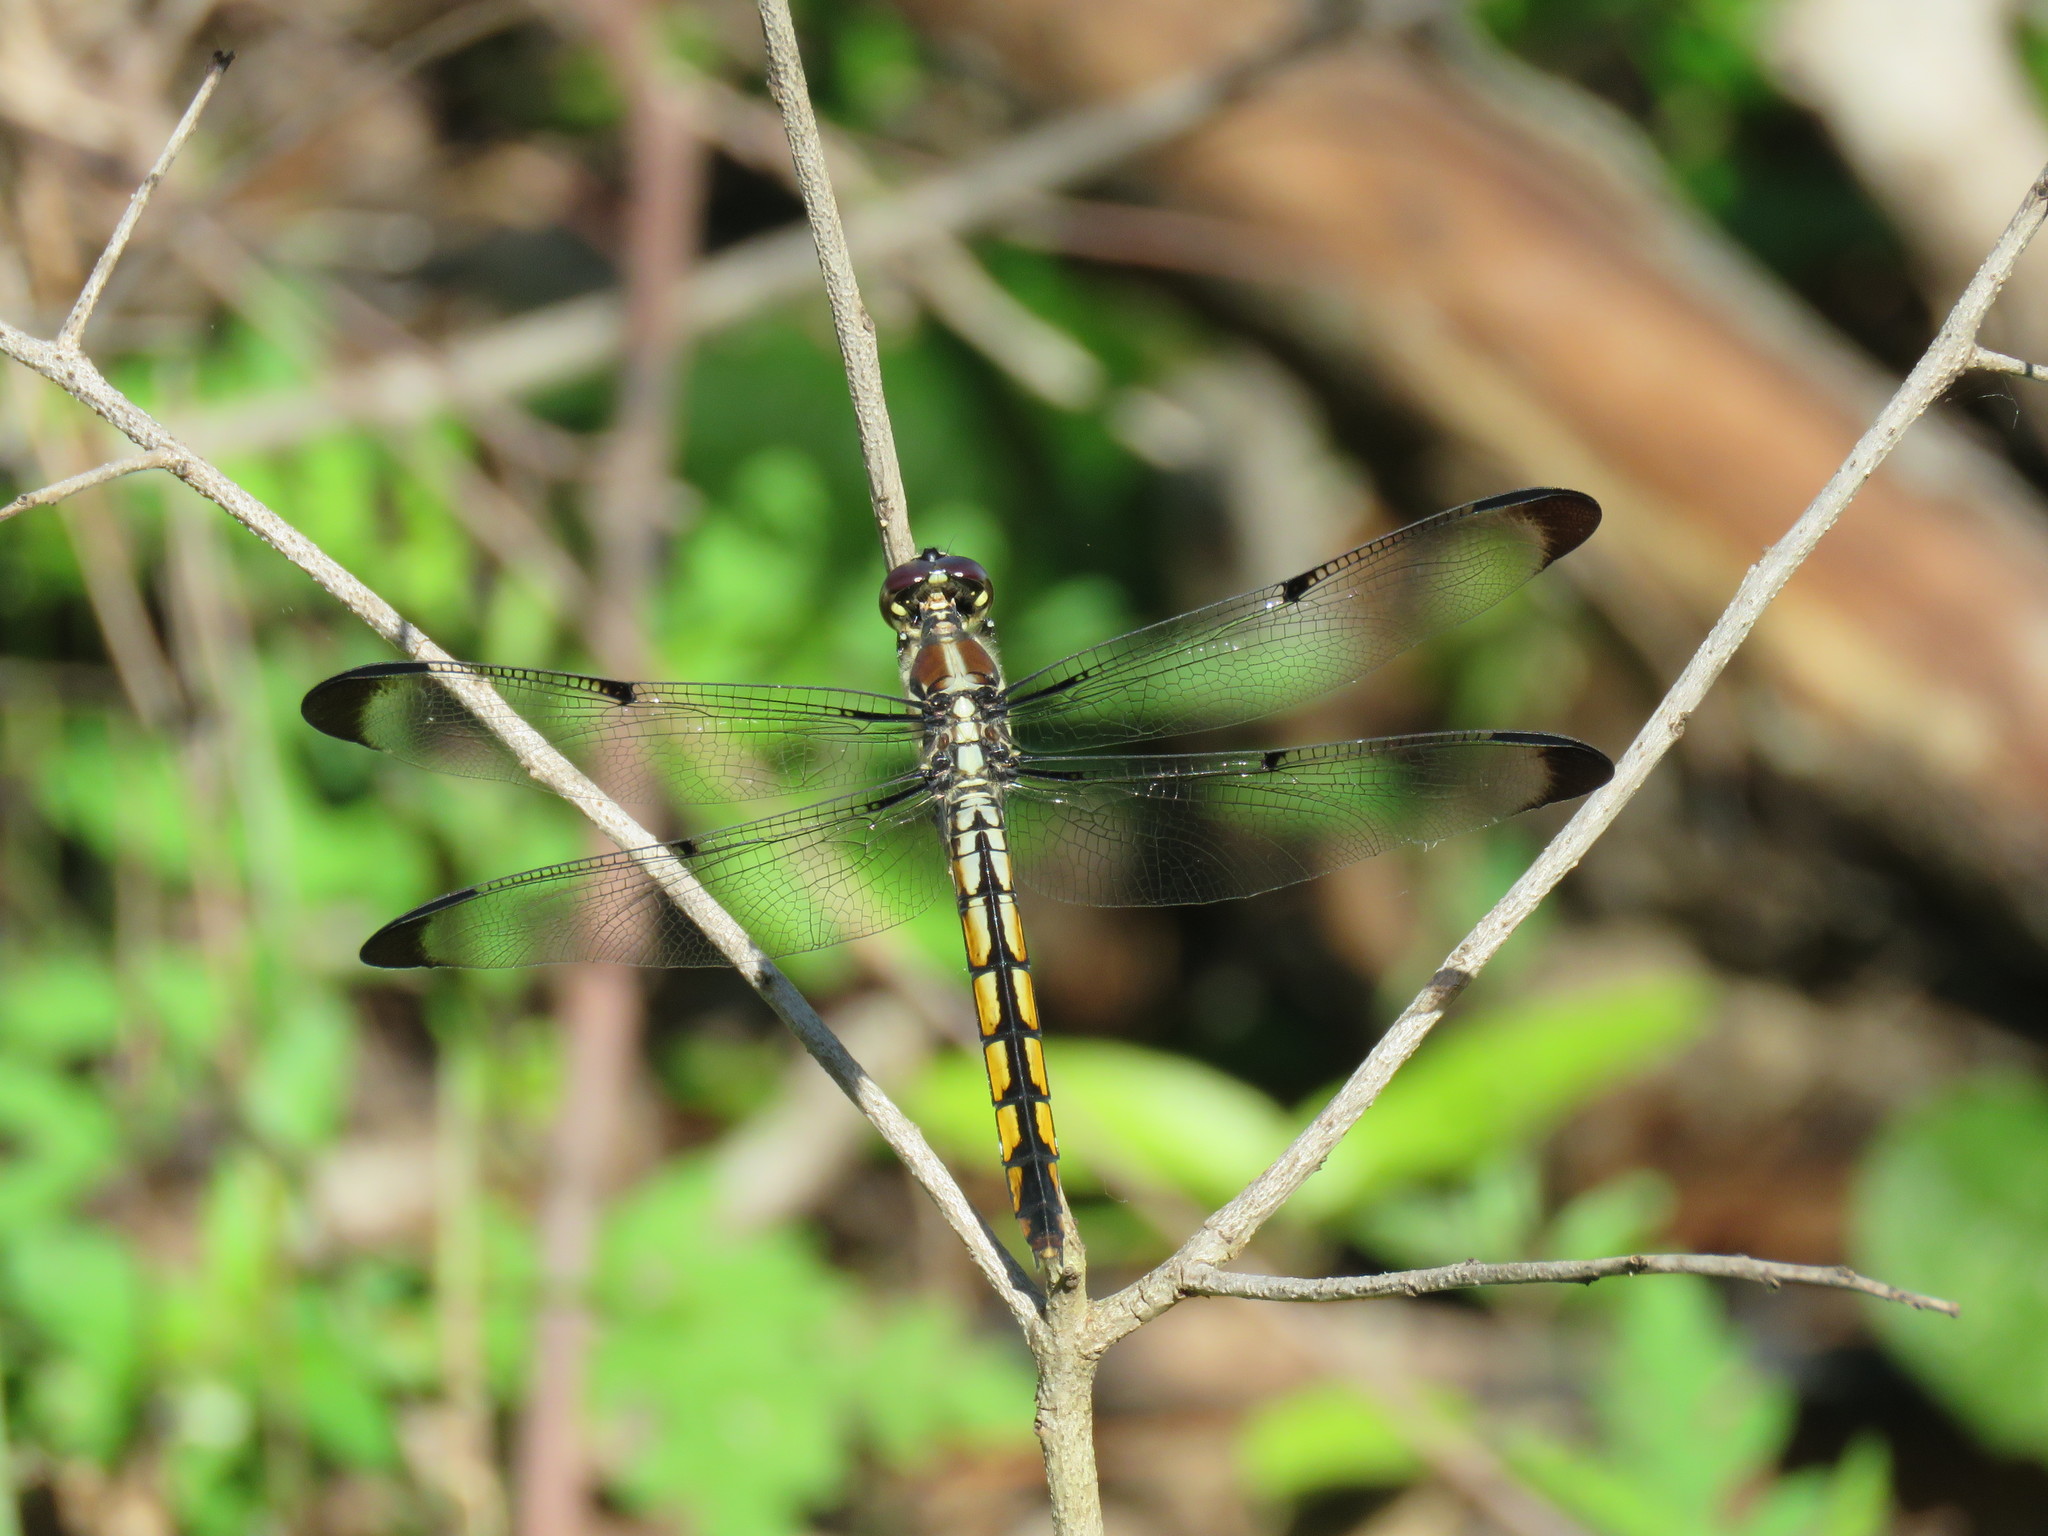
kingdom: Animalia
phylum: Arthropoda
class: Insecta
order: Odonata
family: Libellulidae
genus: Libellula
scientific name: Libellula vibrans
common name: Great blue skimmer
